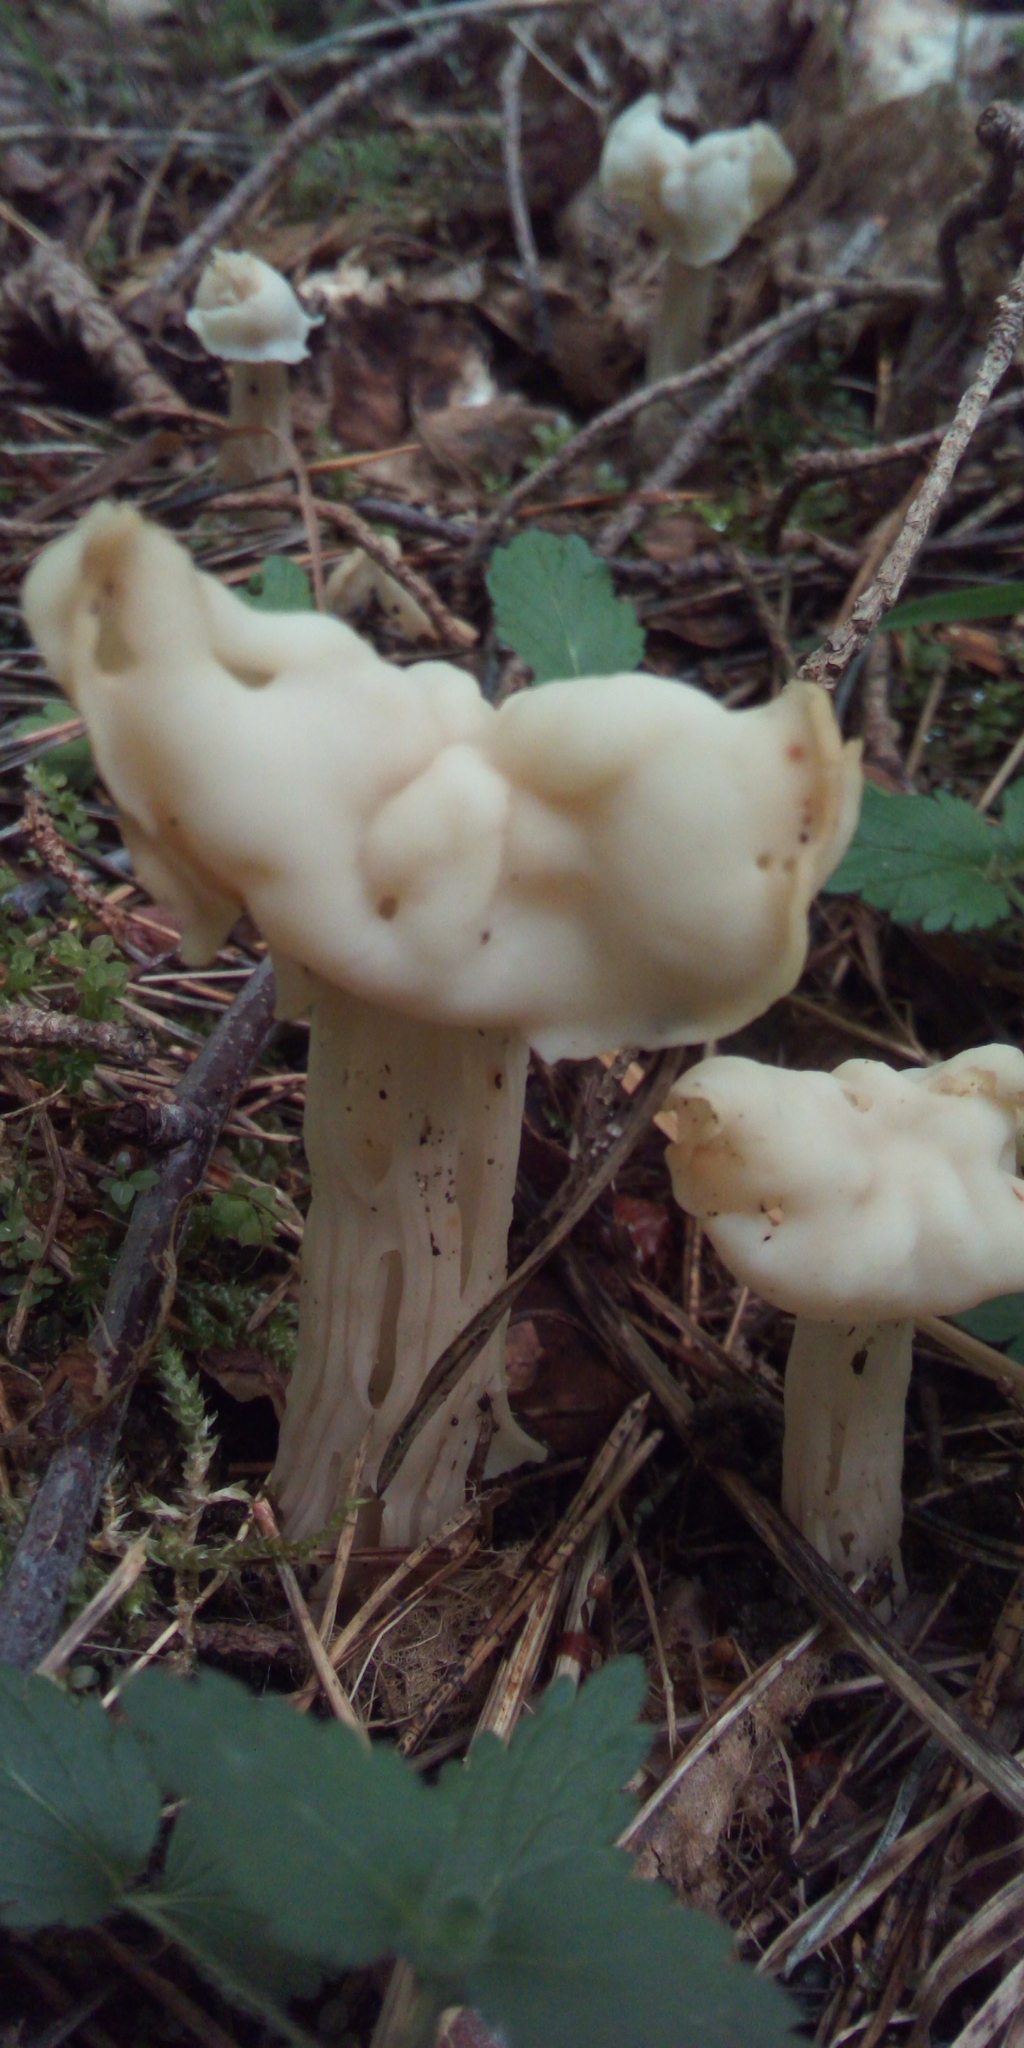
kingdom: Fungi
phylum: Ascomycota
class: Pezizomycetes
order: Pezizales
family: Helvellaceae
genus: Helvella
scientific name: Helvella crispa
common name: White saddle
